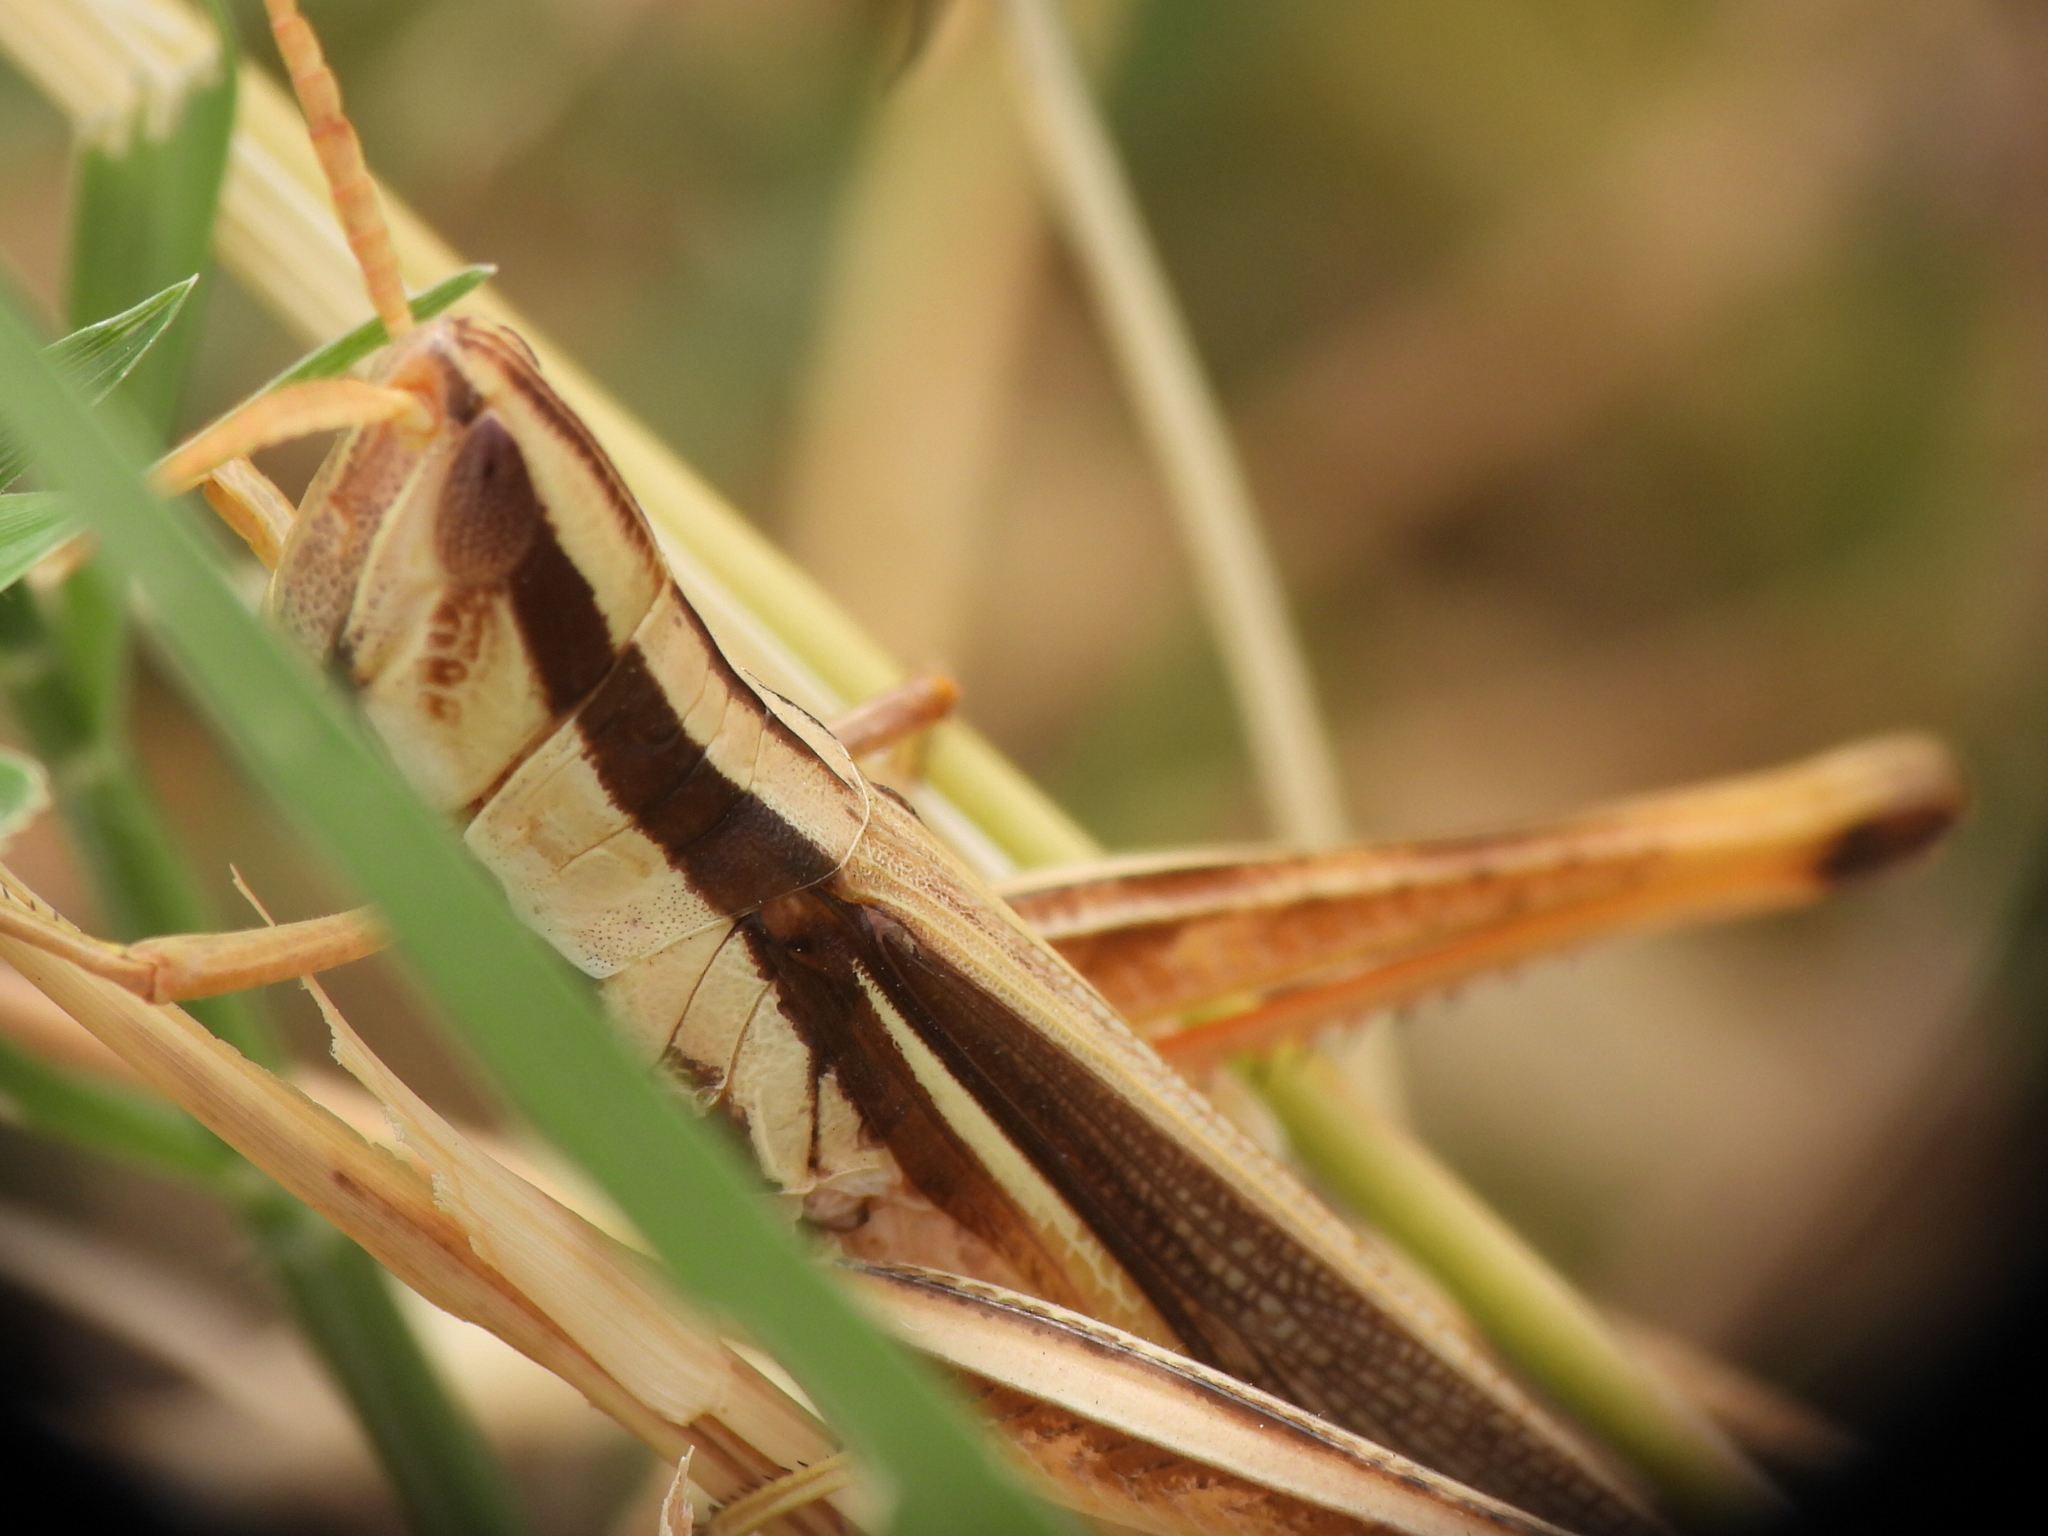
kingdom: Animalia
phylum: Arthropoda
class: Insecta
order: Orthoptera
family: Acrididae
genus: Mermiria
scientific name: Mermiria bivittata
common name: Two-striped mermiria grasshopper
